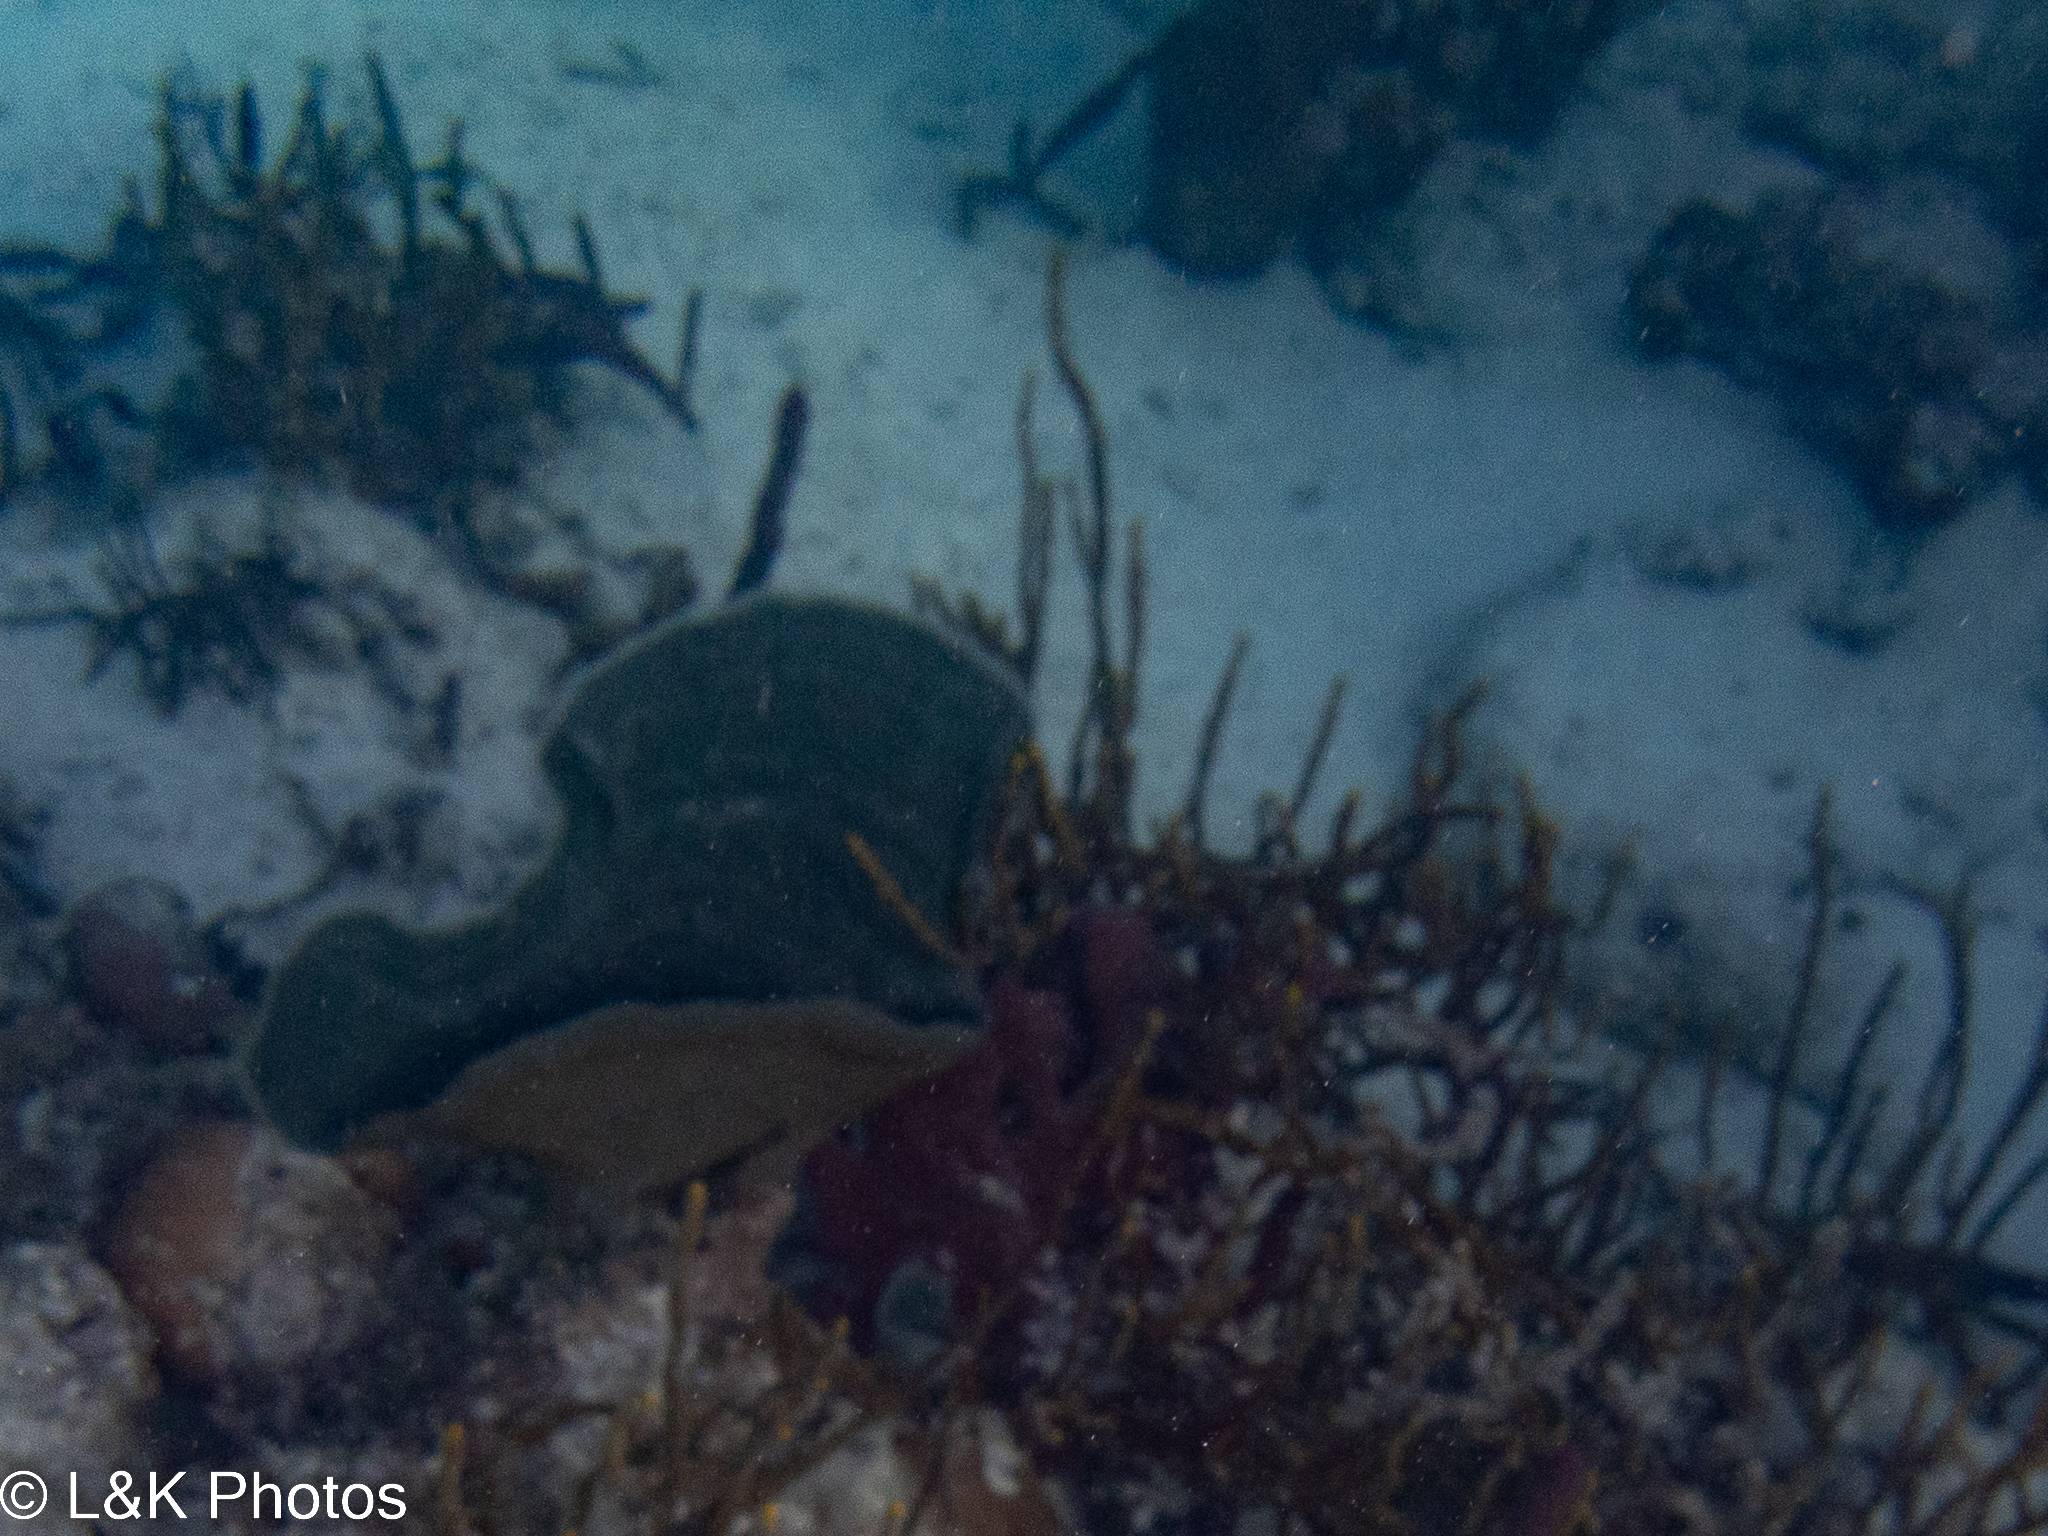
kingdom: Animalia
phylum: Porifera
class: Demospongiae
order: Haplosclerida
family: Niphatidae
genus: Niphates
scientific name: Niphates digitalis
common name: Pink vase sponge
